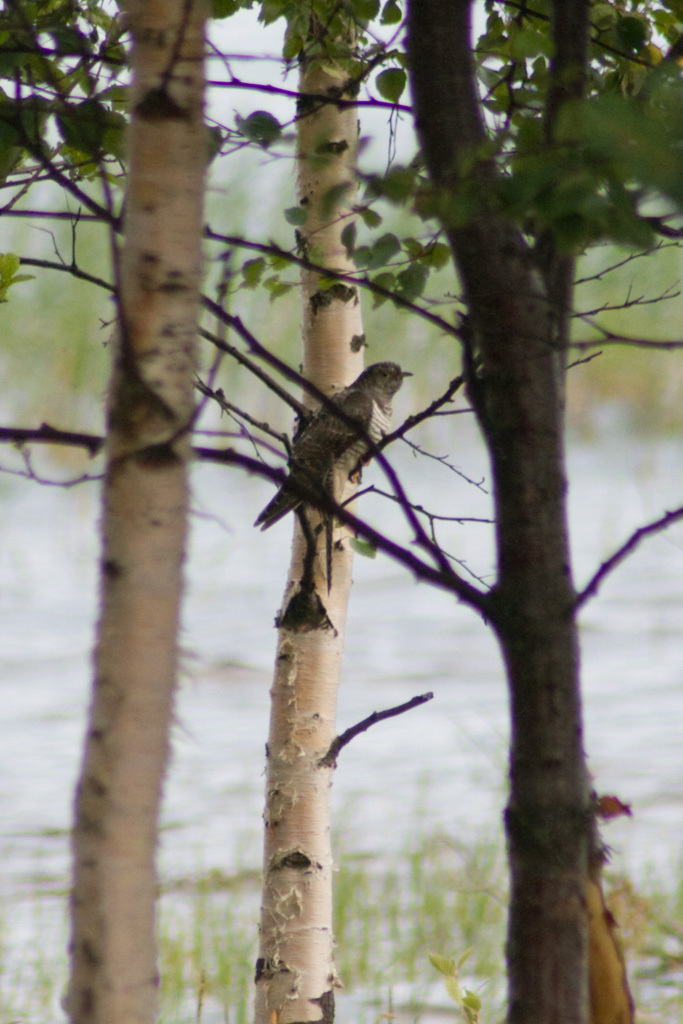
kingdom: Animalia
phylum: Chordata
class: Aves
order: Cuculiformes
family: Cuculidae
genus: Cuculus
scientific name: Cuculus canorus
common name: Common cuckoo
